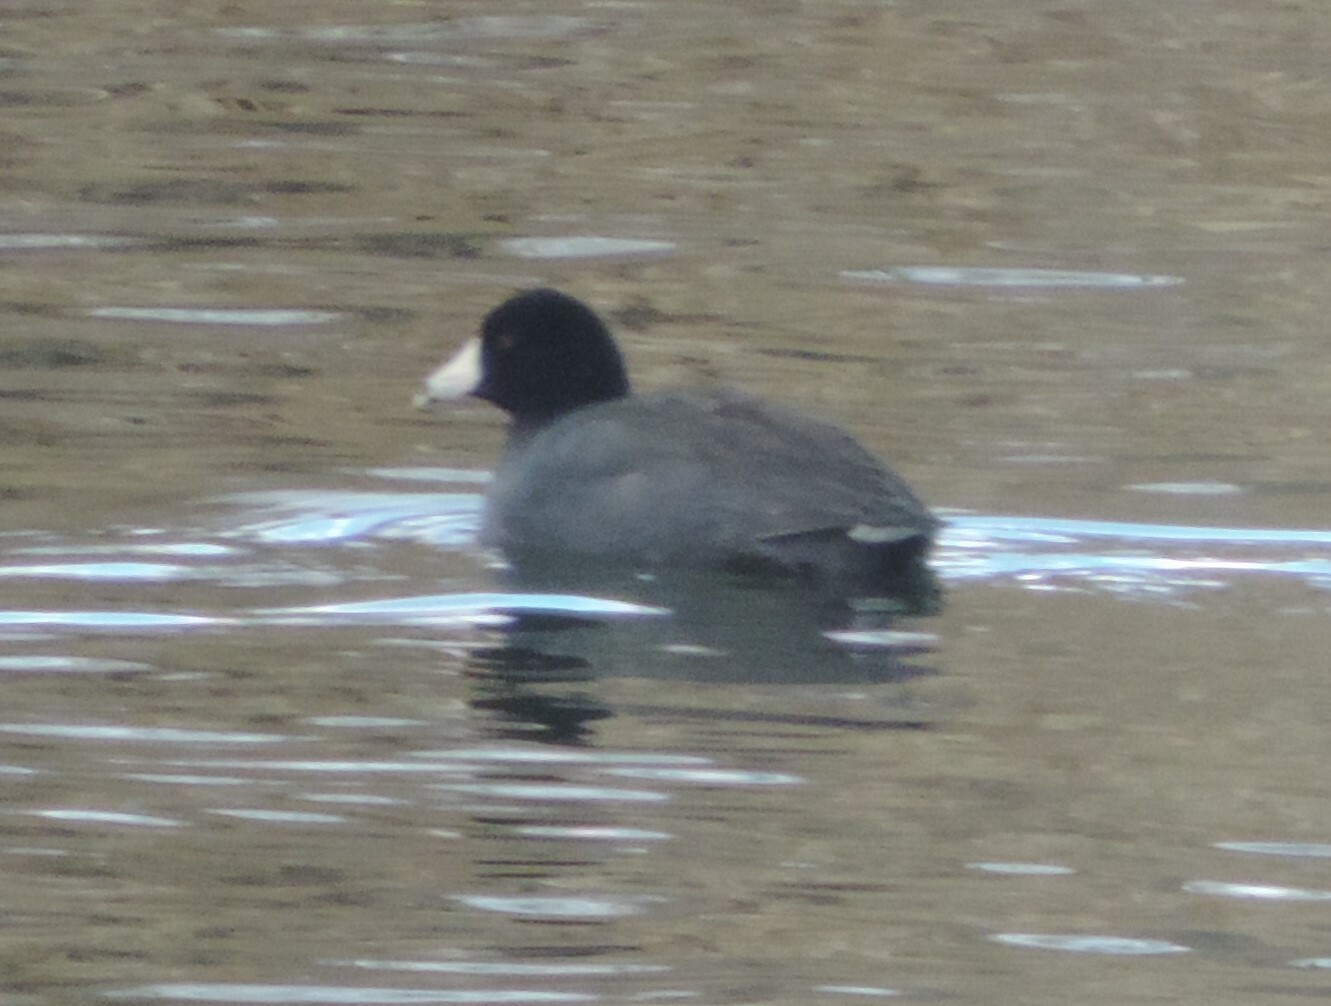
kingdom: Animalia
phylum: Chordata
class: Aves
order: Gruiformes
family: Rallidae
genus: Fulica
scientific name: Fulica americana
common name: American coot
